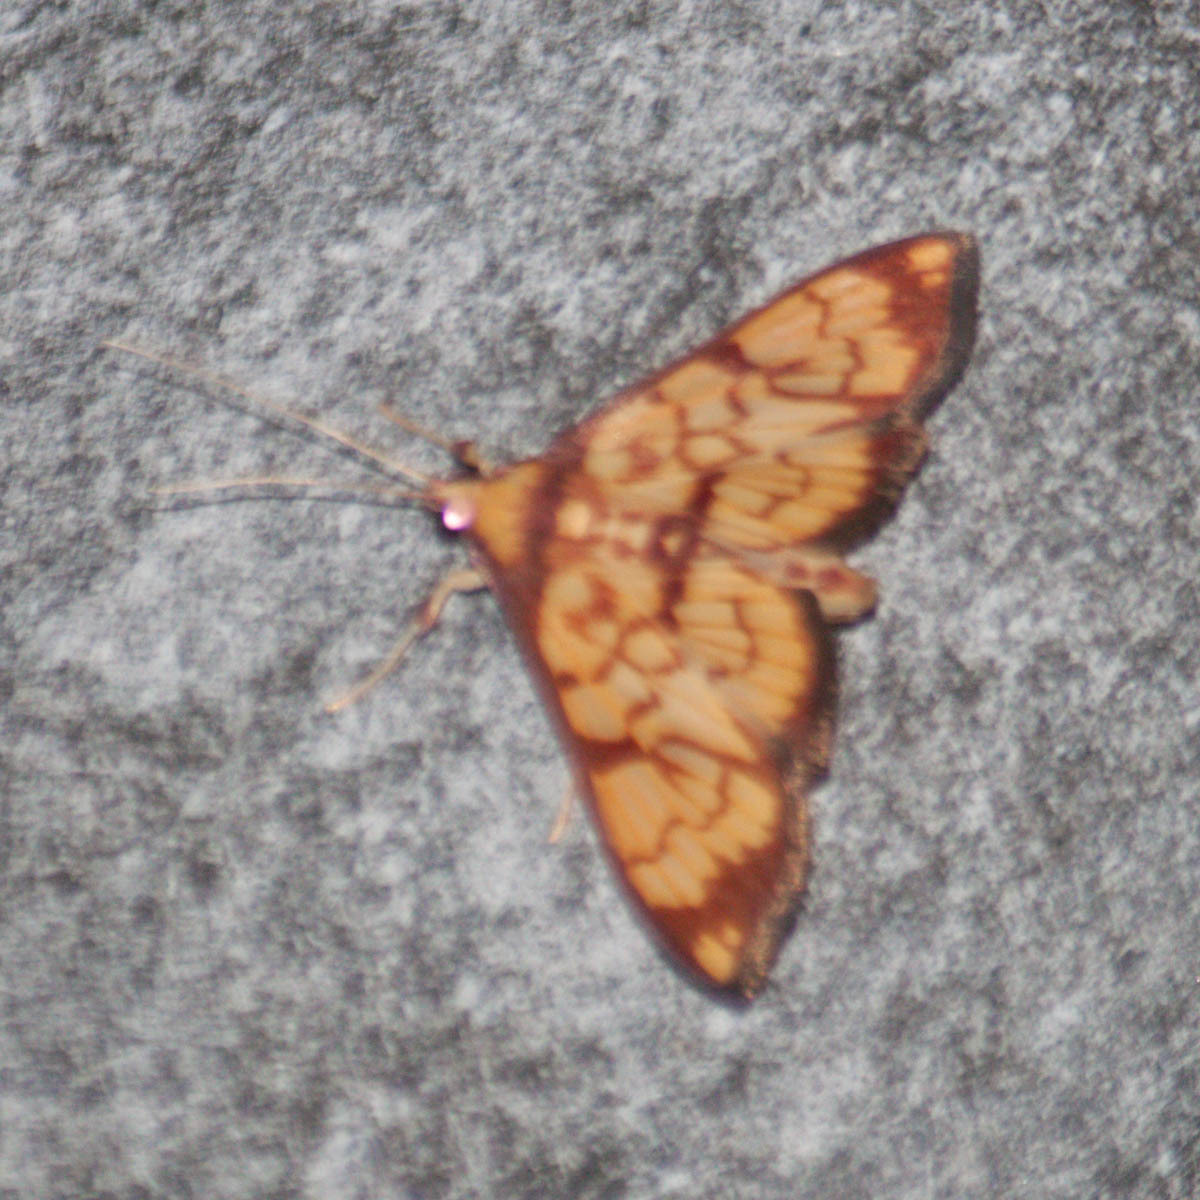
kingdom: Animalia
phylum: Arthropoda
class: Insecta
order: Lepidoptera
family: Crambidae
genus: Chalcidoptera
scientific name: Chalcidoptera emissalis
